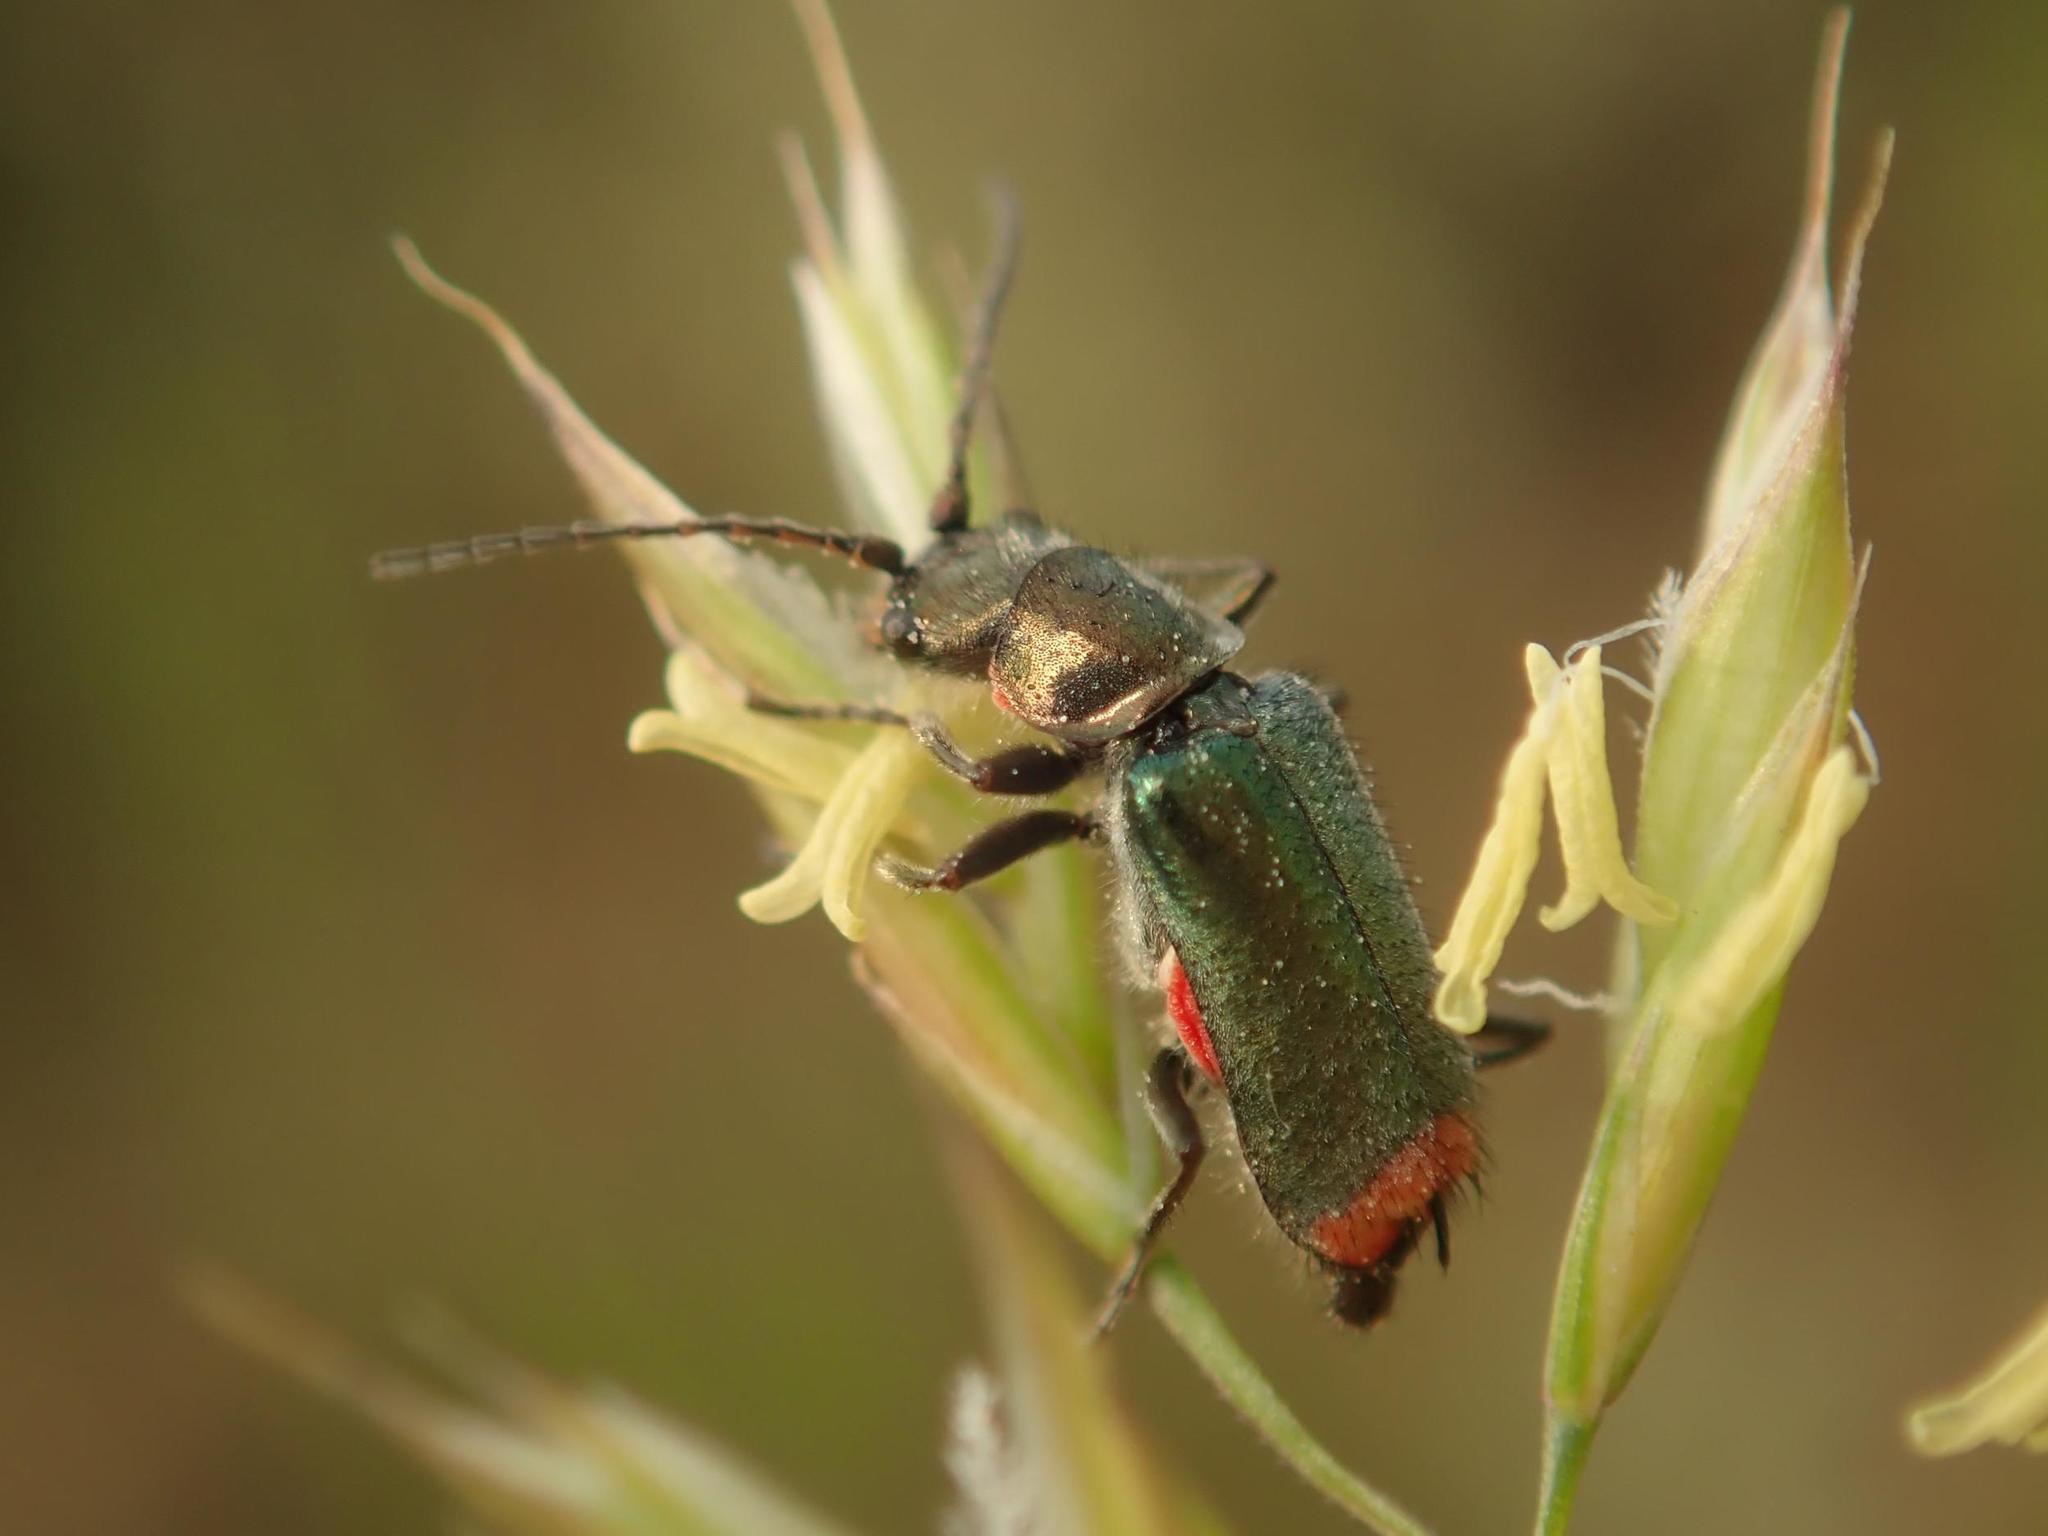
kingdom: Animalia
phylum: Arthropoda
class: Insecta
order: Coleoptera
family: Malachiidae
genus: Clanoptilus
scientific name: Clanoptilus geniculatus
